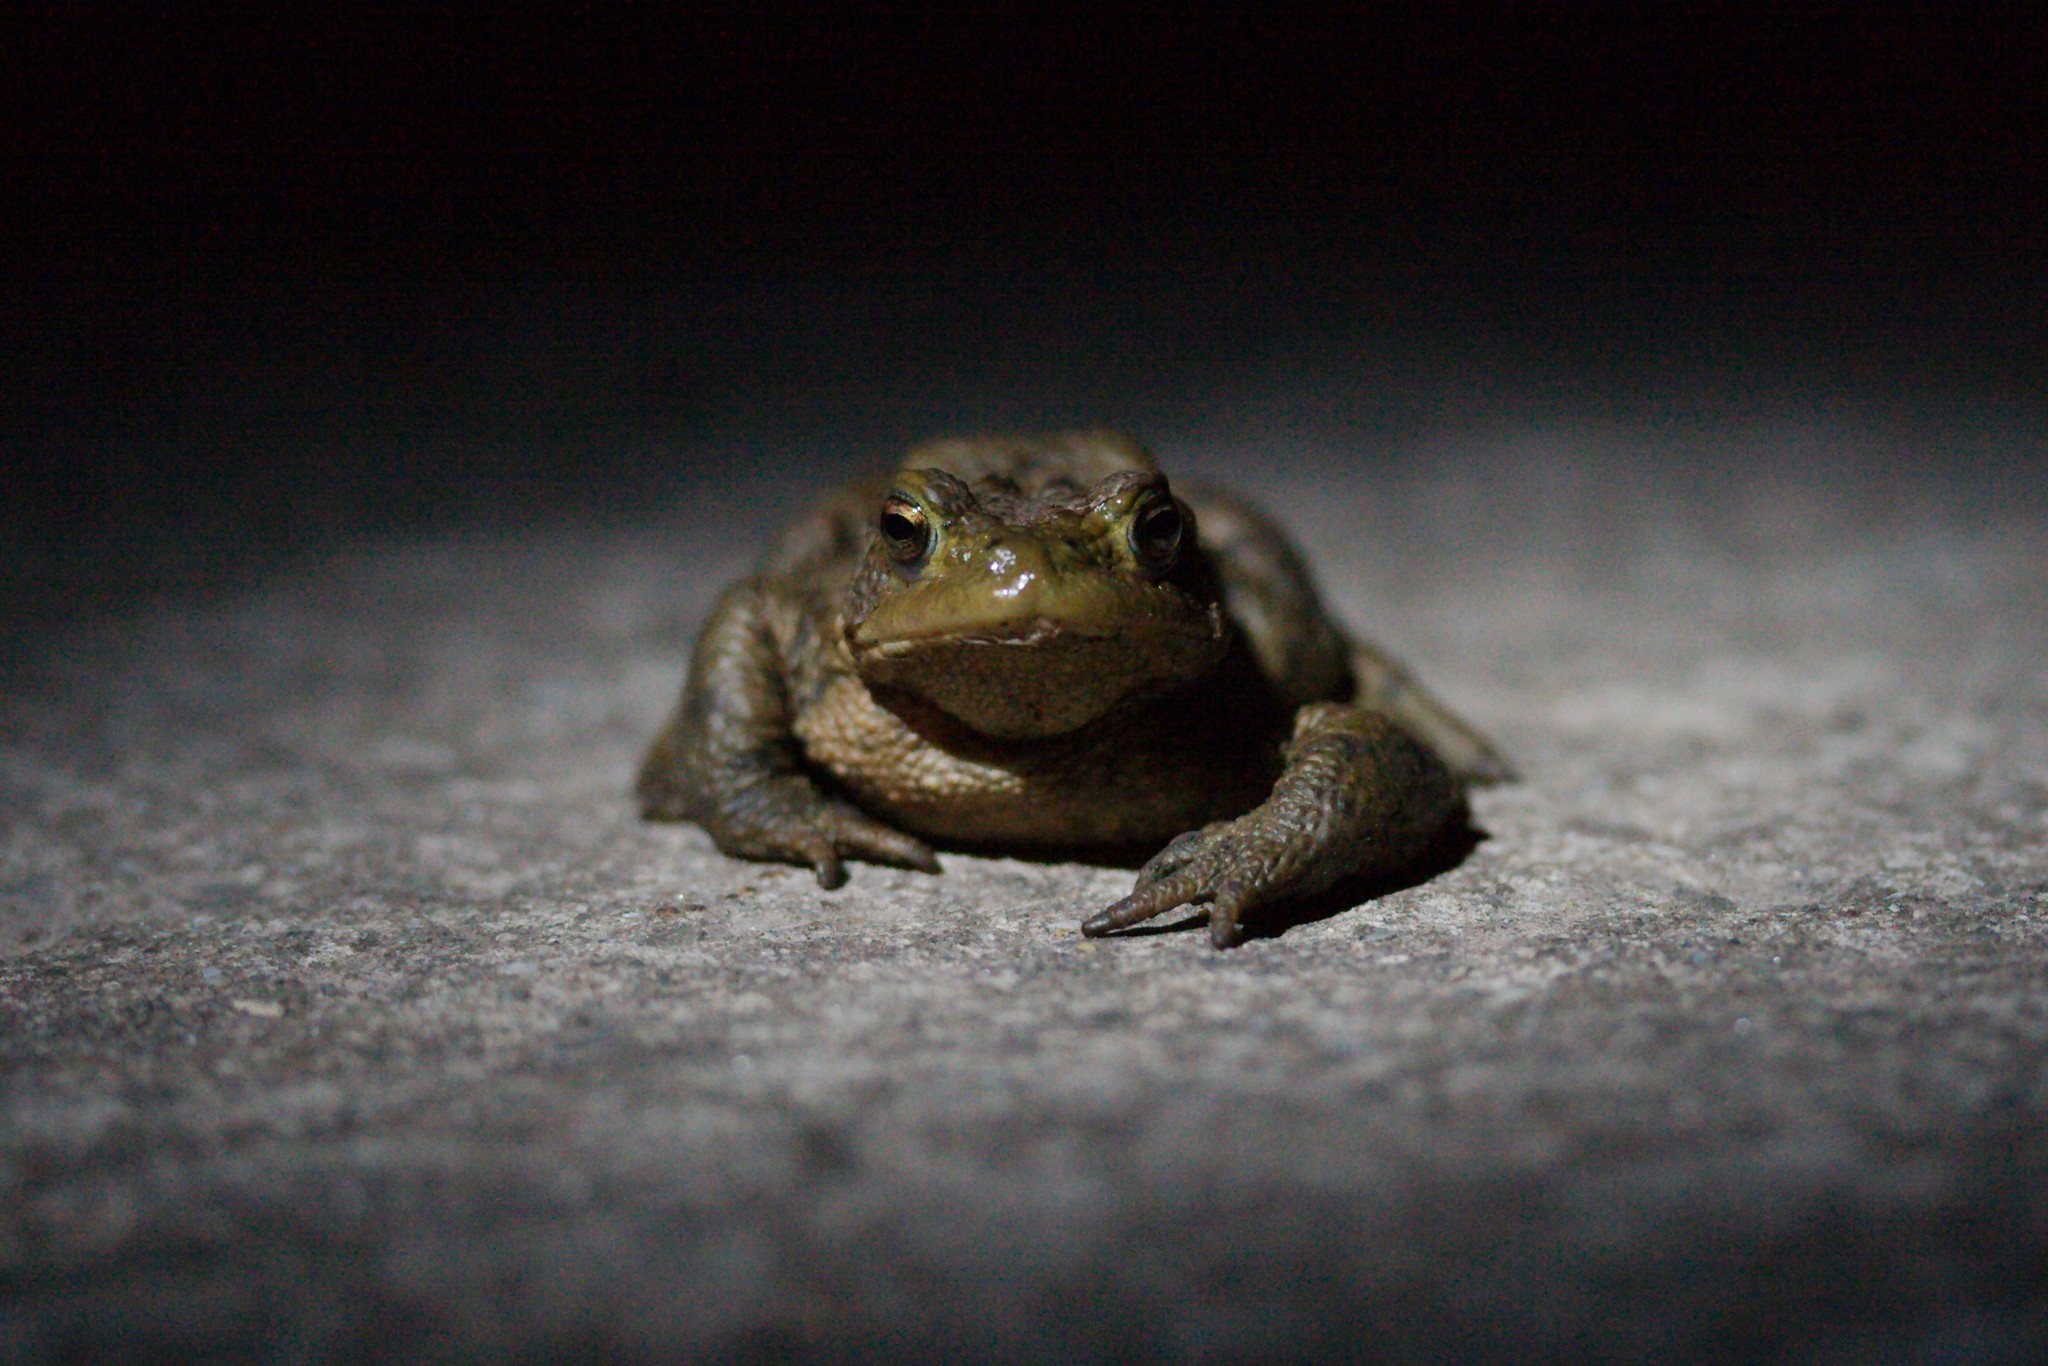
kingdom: Animalia
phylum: Chordata
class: Amphibia
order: Anura
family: Bufonidae
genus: Bufo
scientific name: Bufo bufo
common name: Common toad
